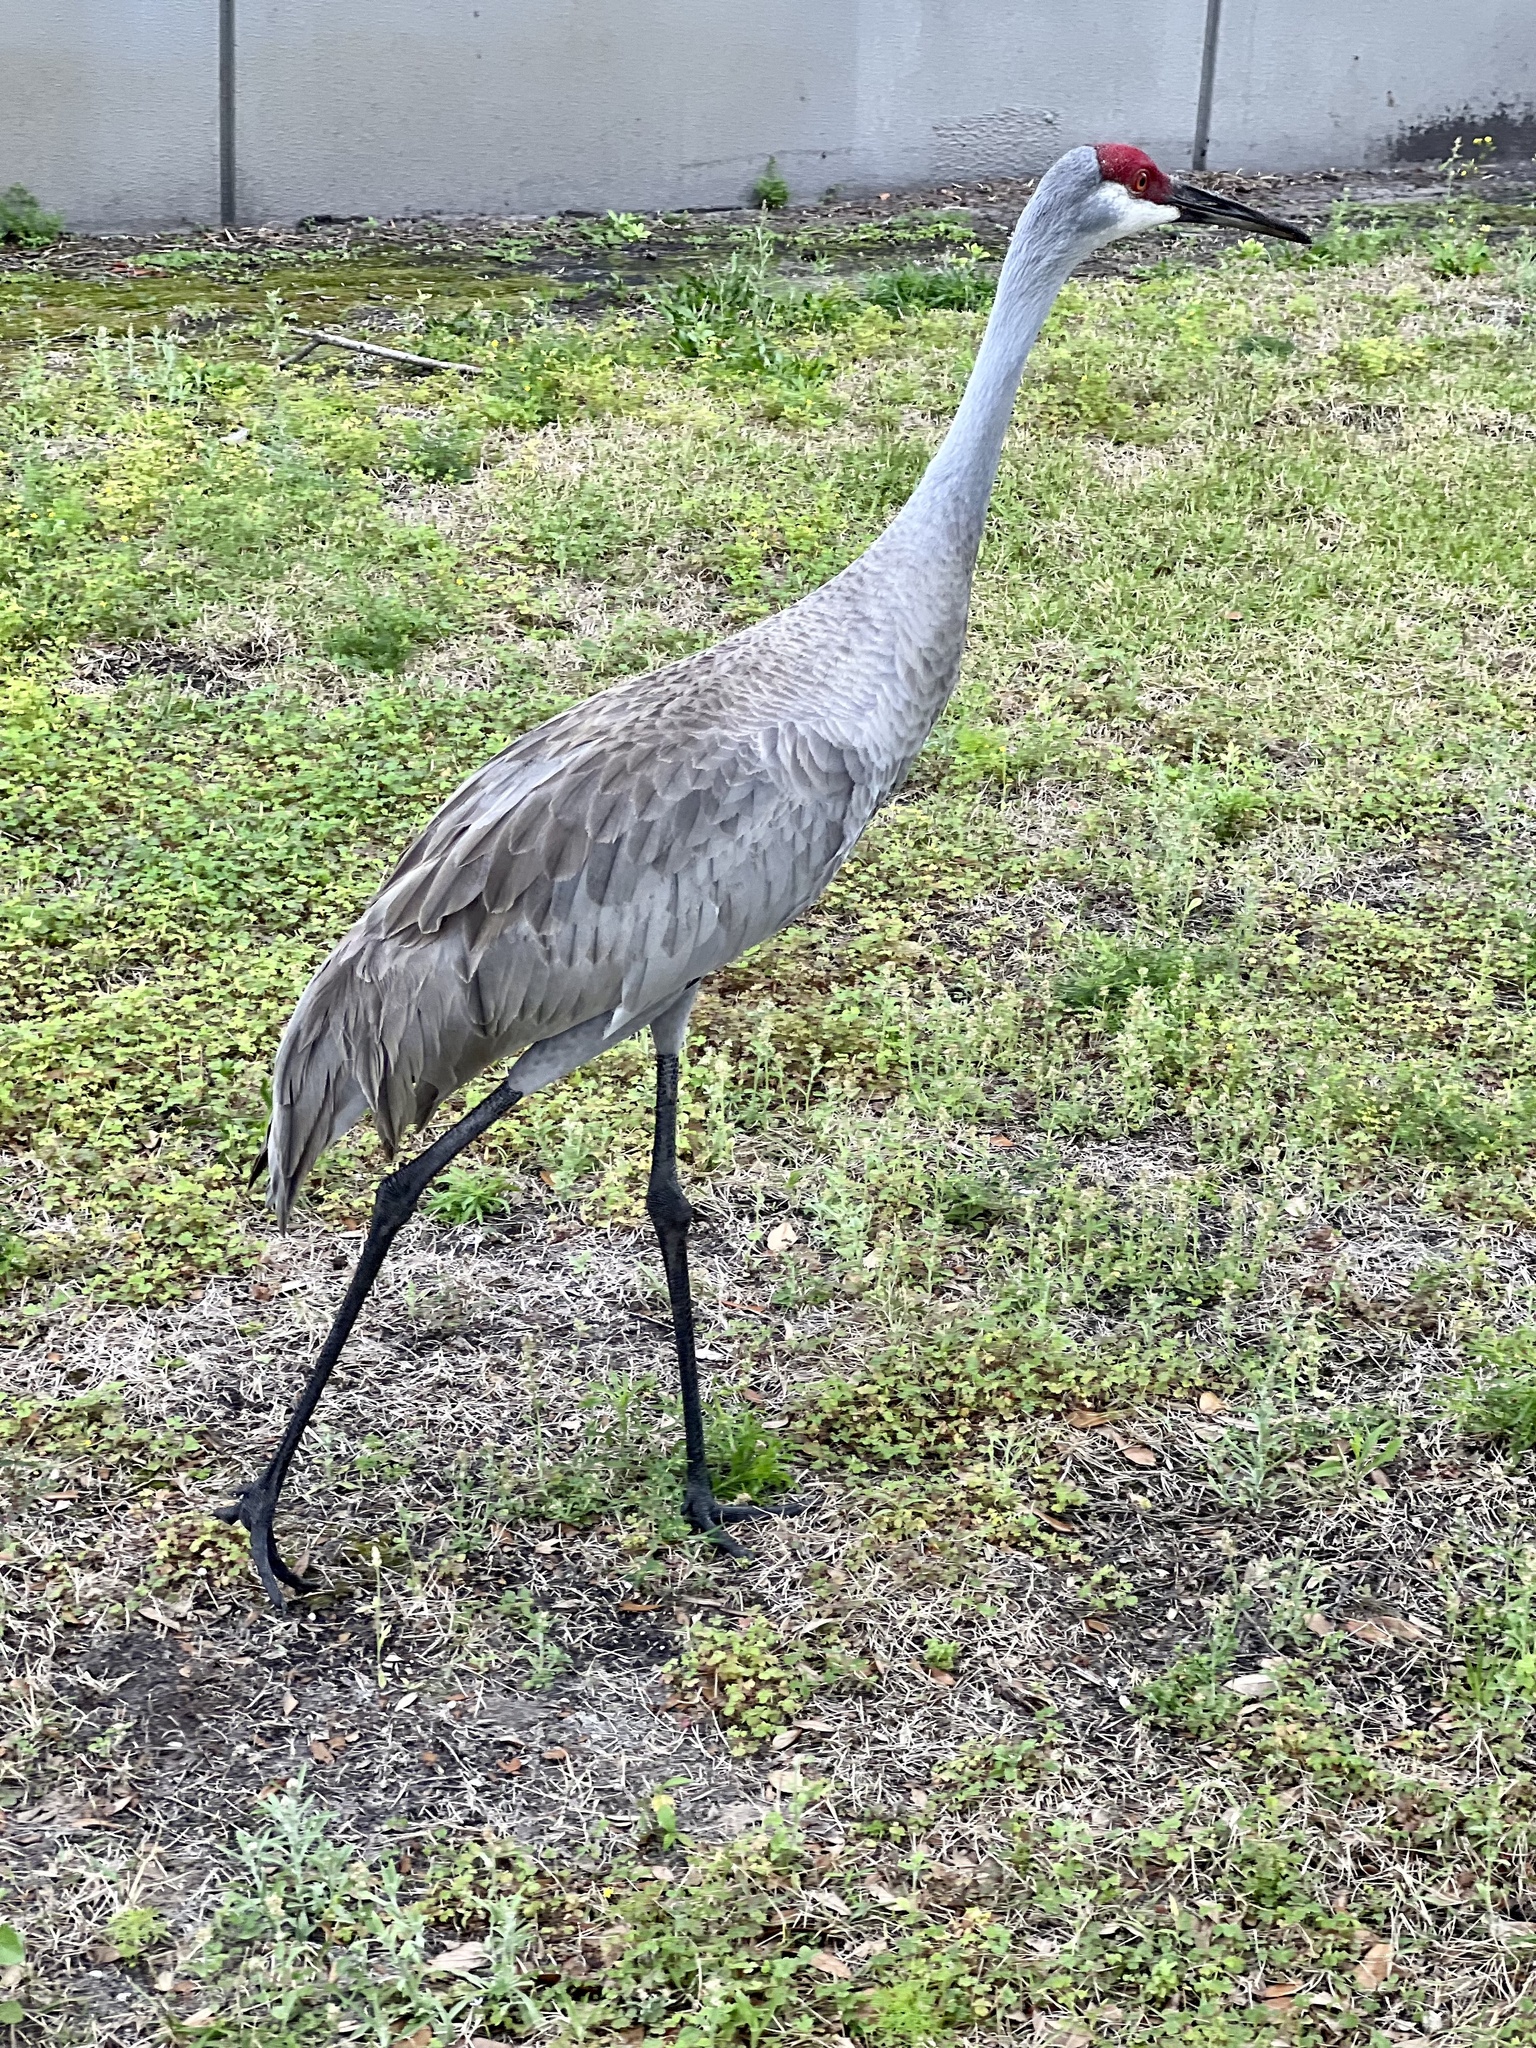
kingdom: Animalia
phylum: Chordata
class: Aves
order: Gruiformes
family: Gruidae
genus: Grus
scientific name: Grus canadensis
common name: Sandhill crane
